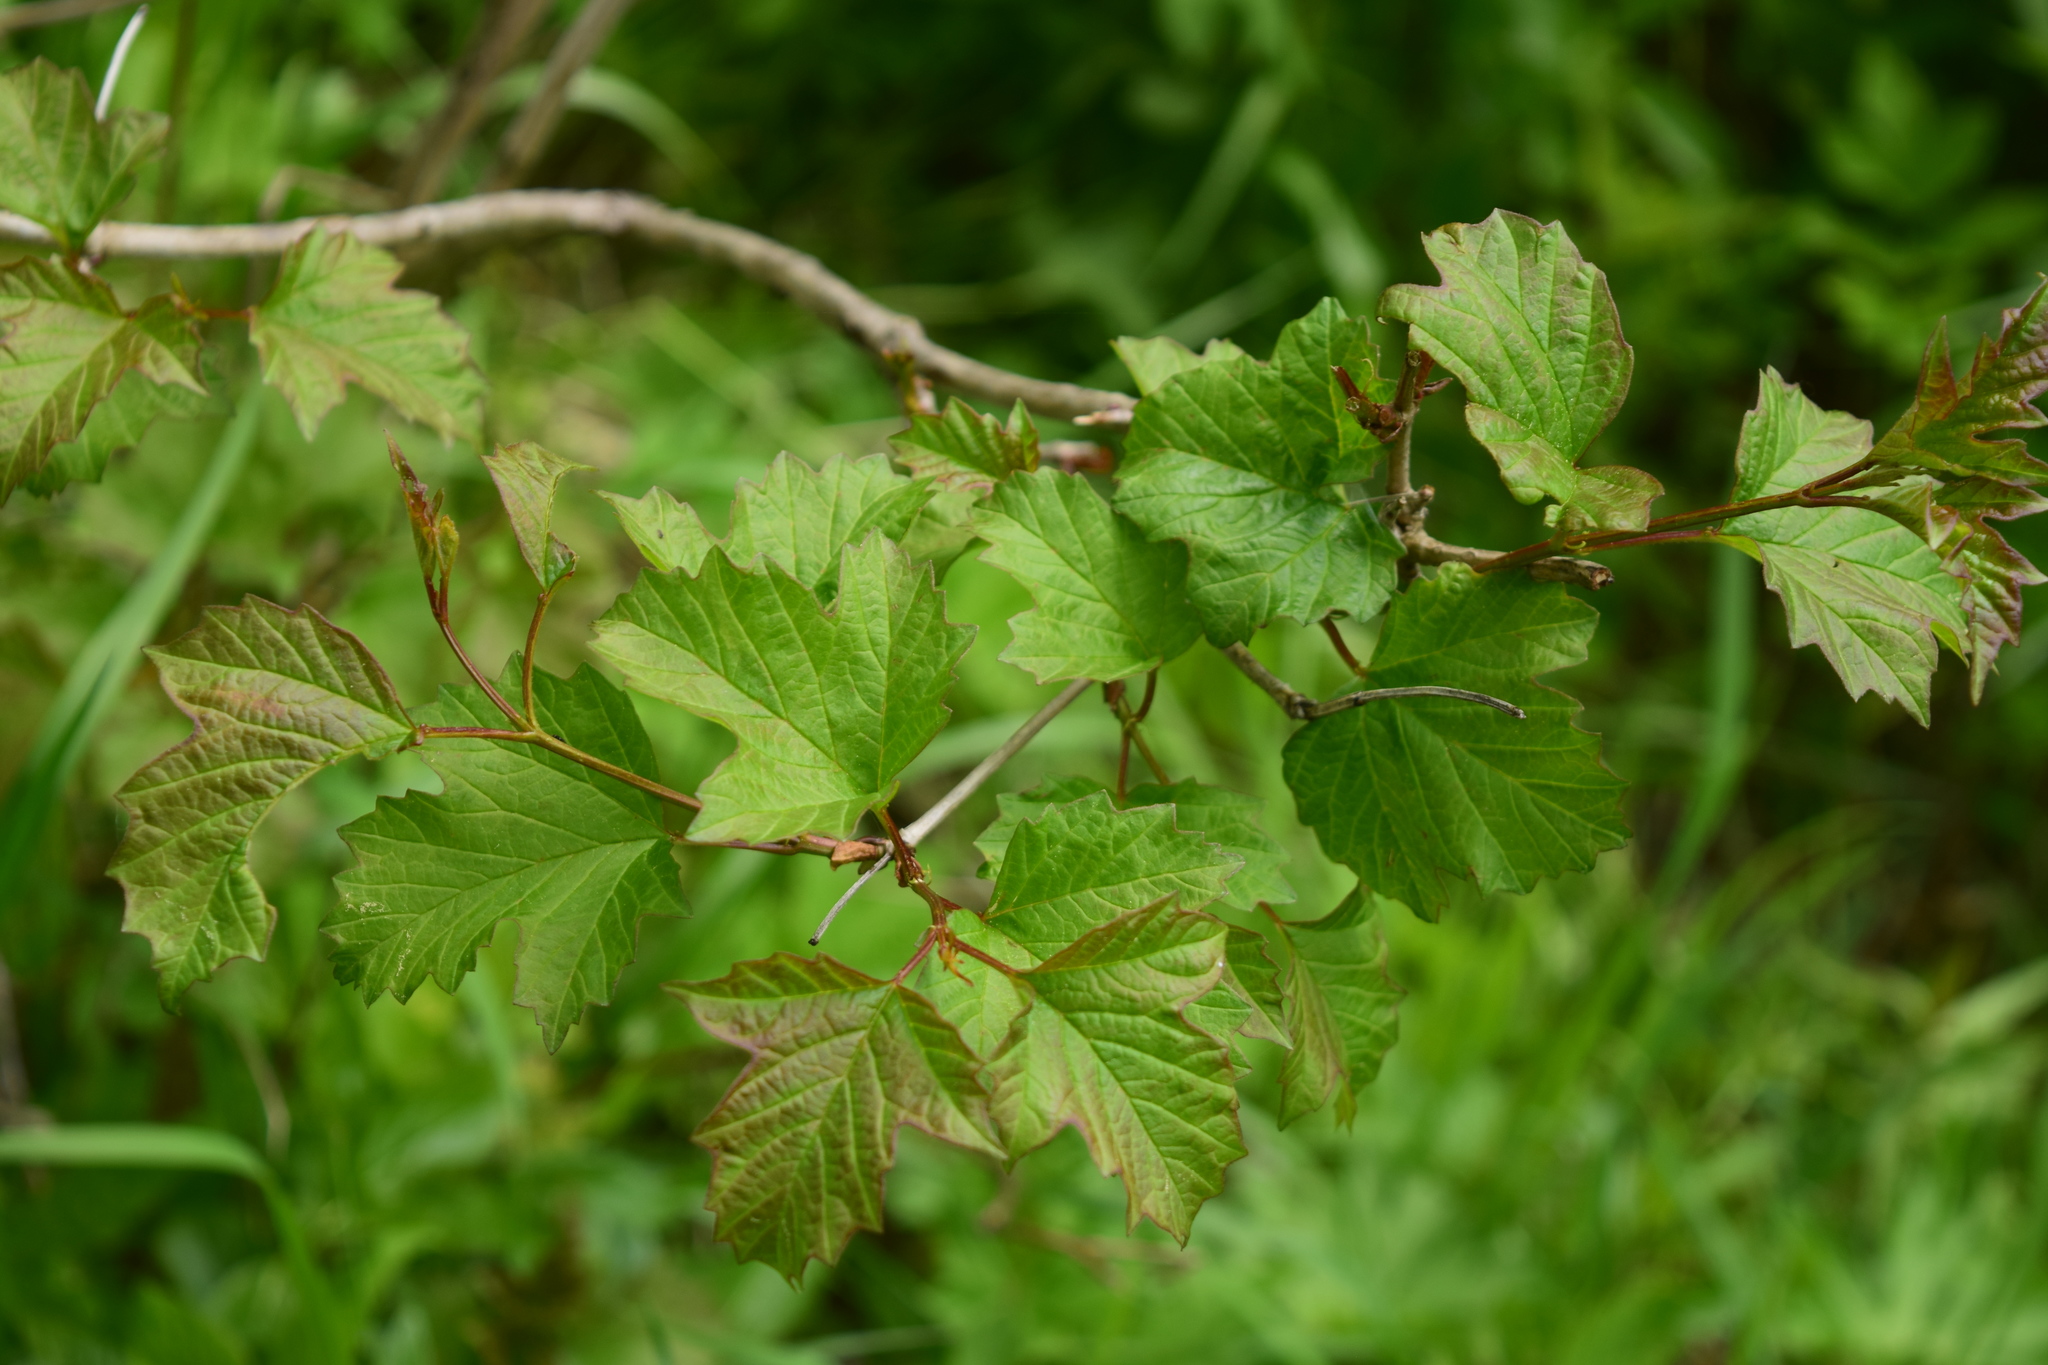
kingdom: Plantae
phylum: Tracheophyta
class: Magnoliopsida
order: Dipsacales
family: Viburnaceae
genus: Viburnum
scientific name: Viburnum opulus
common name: Guelder-rose
